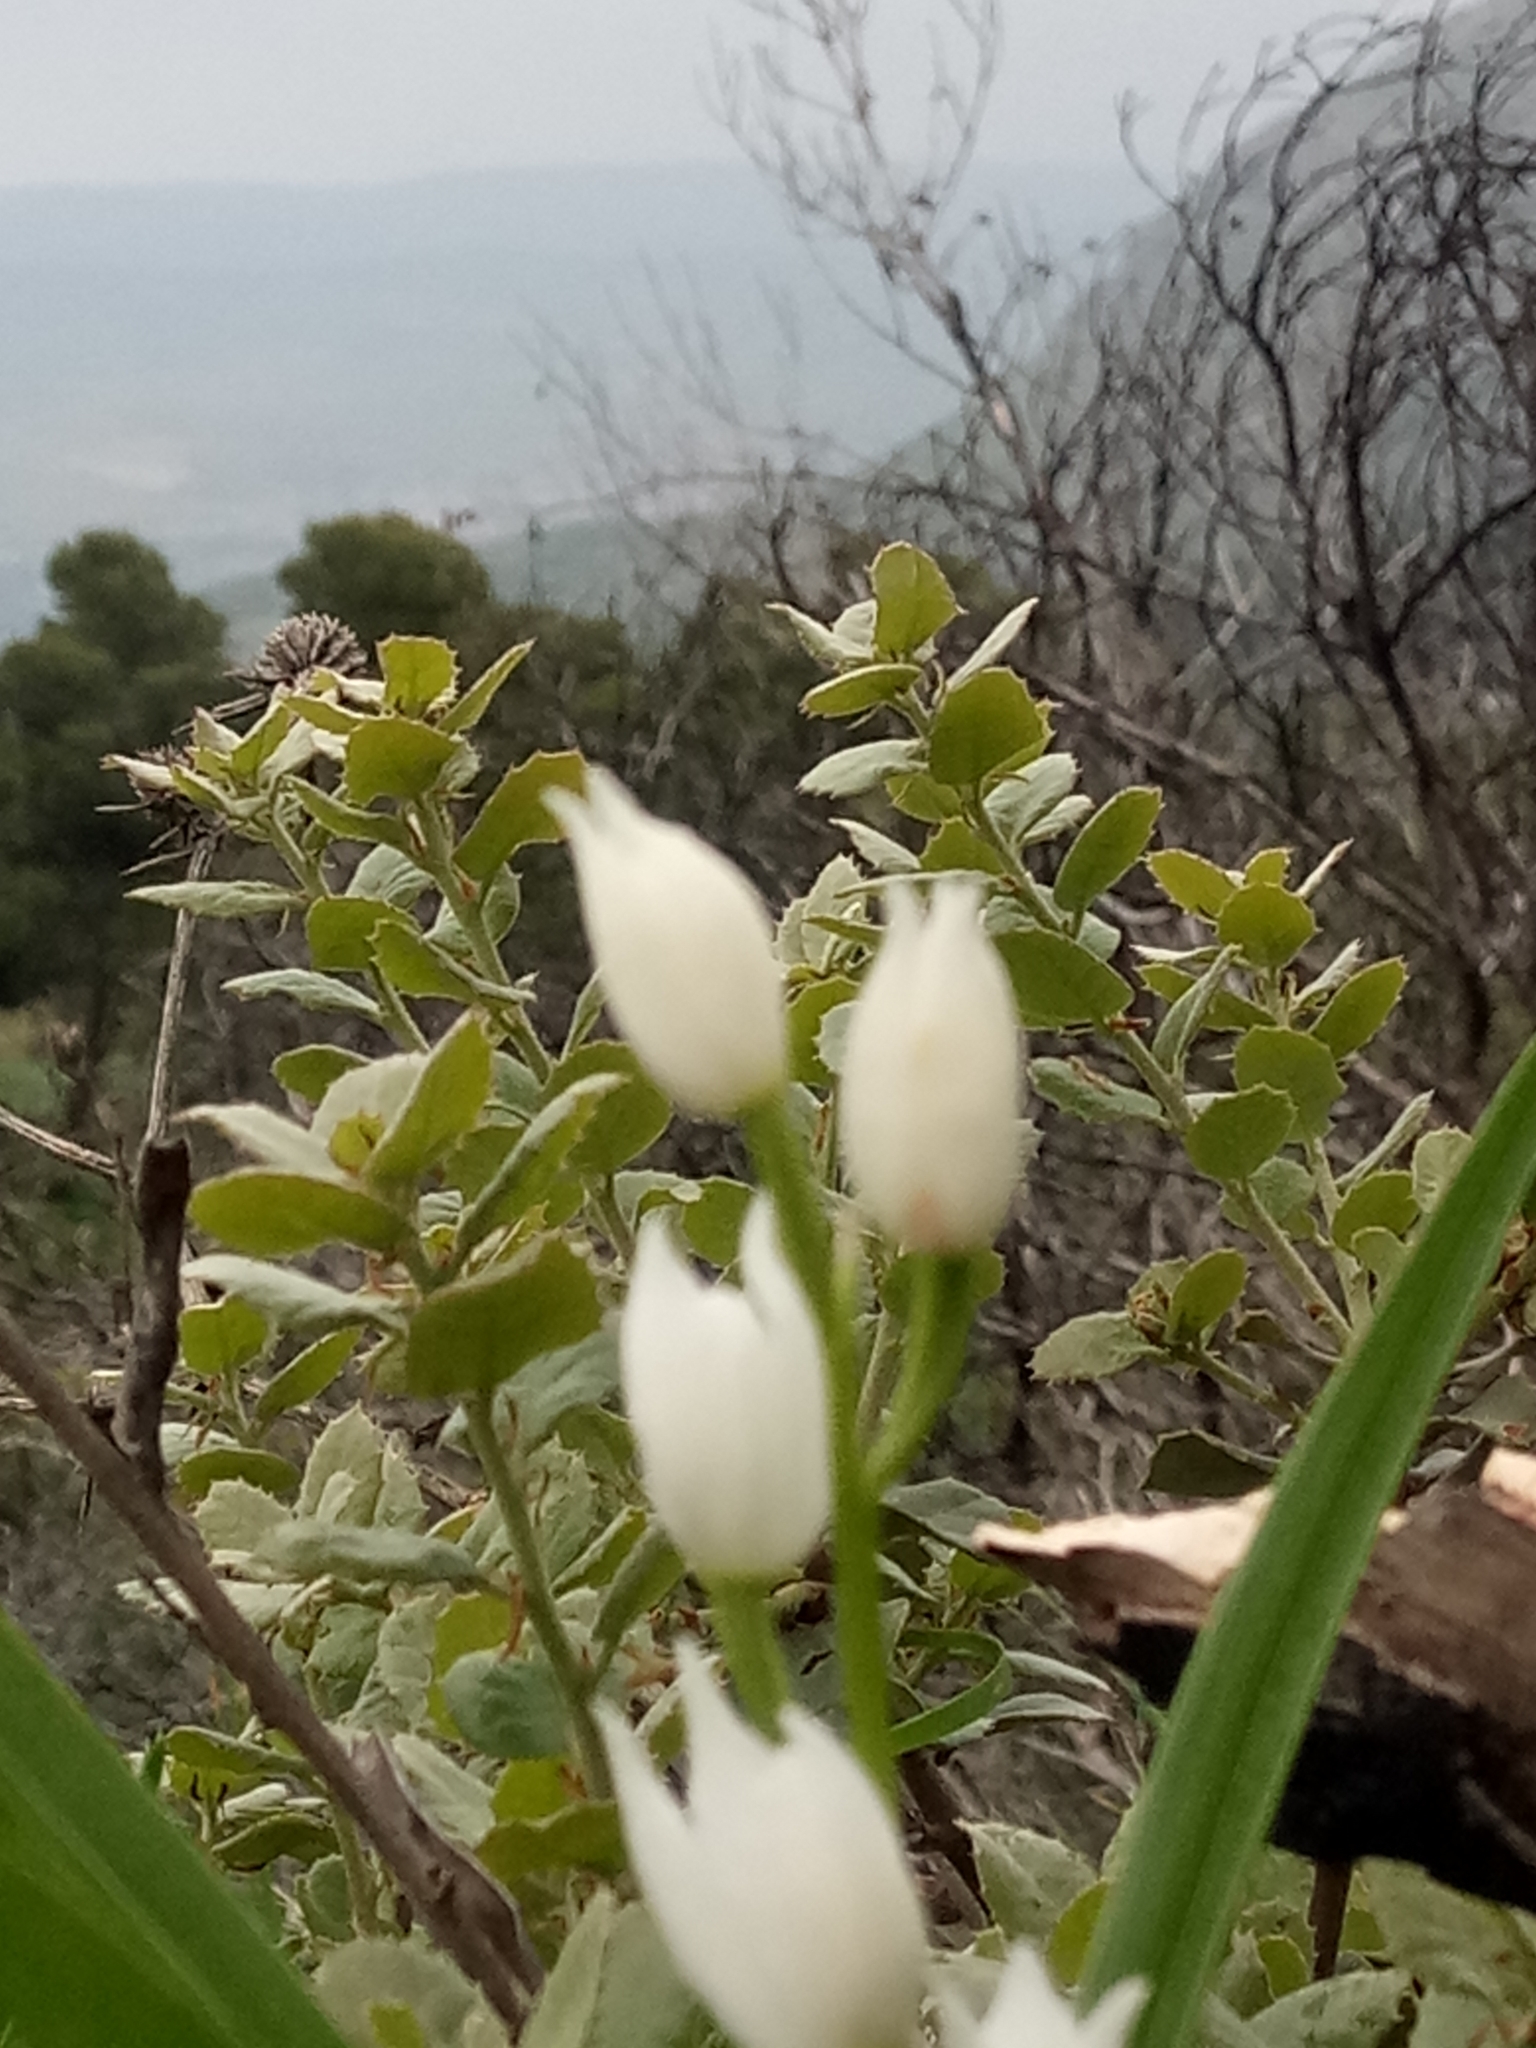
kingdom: Plantae
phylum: Tracheophyta
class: Liliopsida
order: Asparagales
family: Orchidaceae
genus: Cephalanthera
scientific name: Cephalanthera longifolia
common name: Narrow-leaved helleborine
